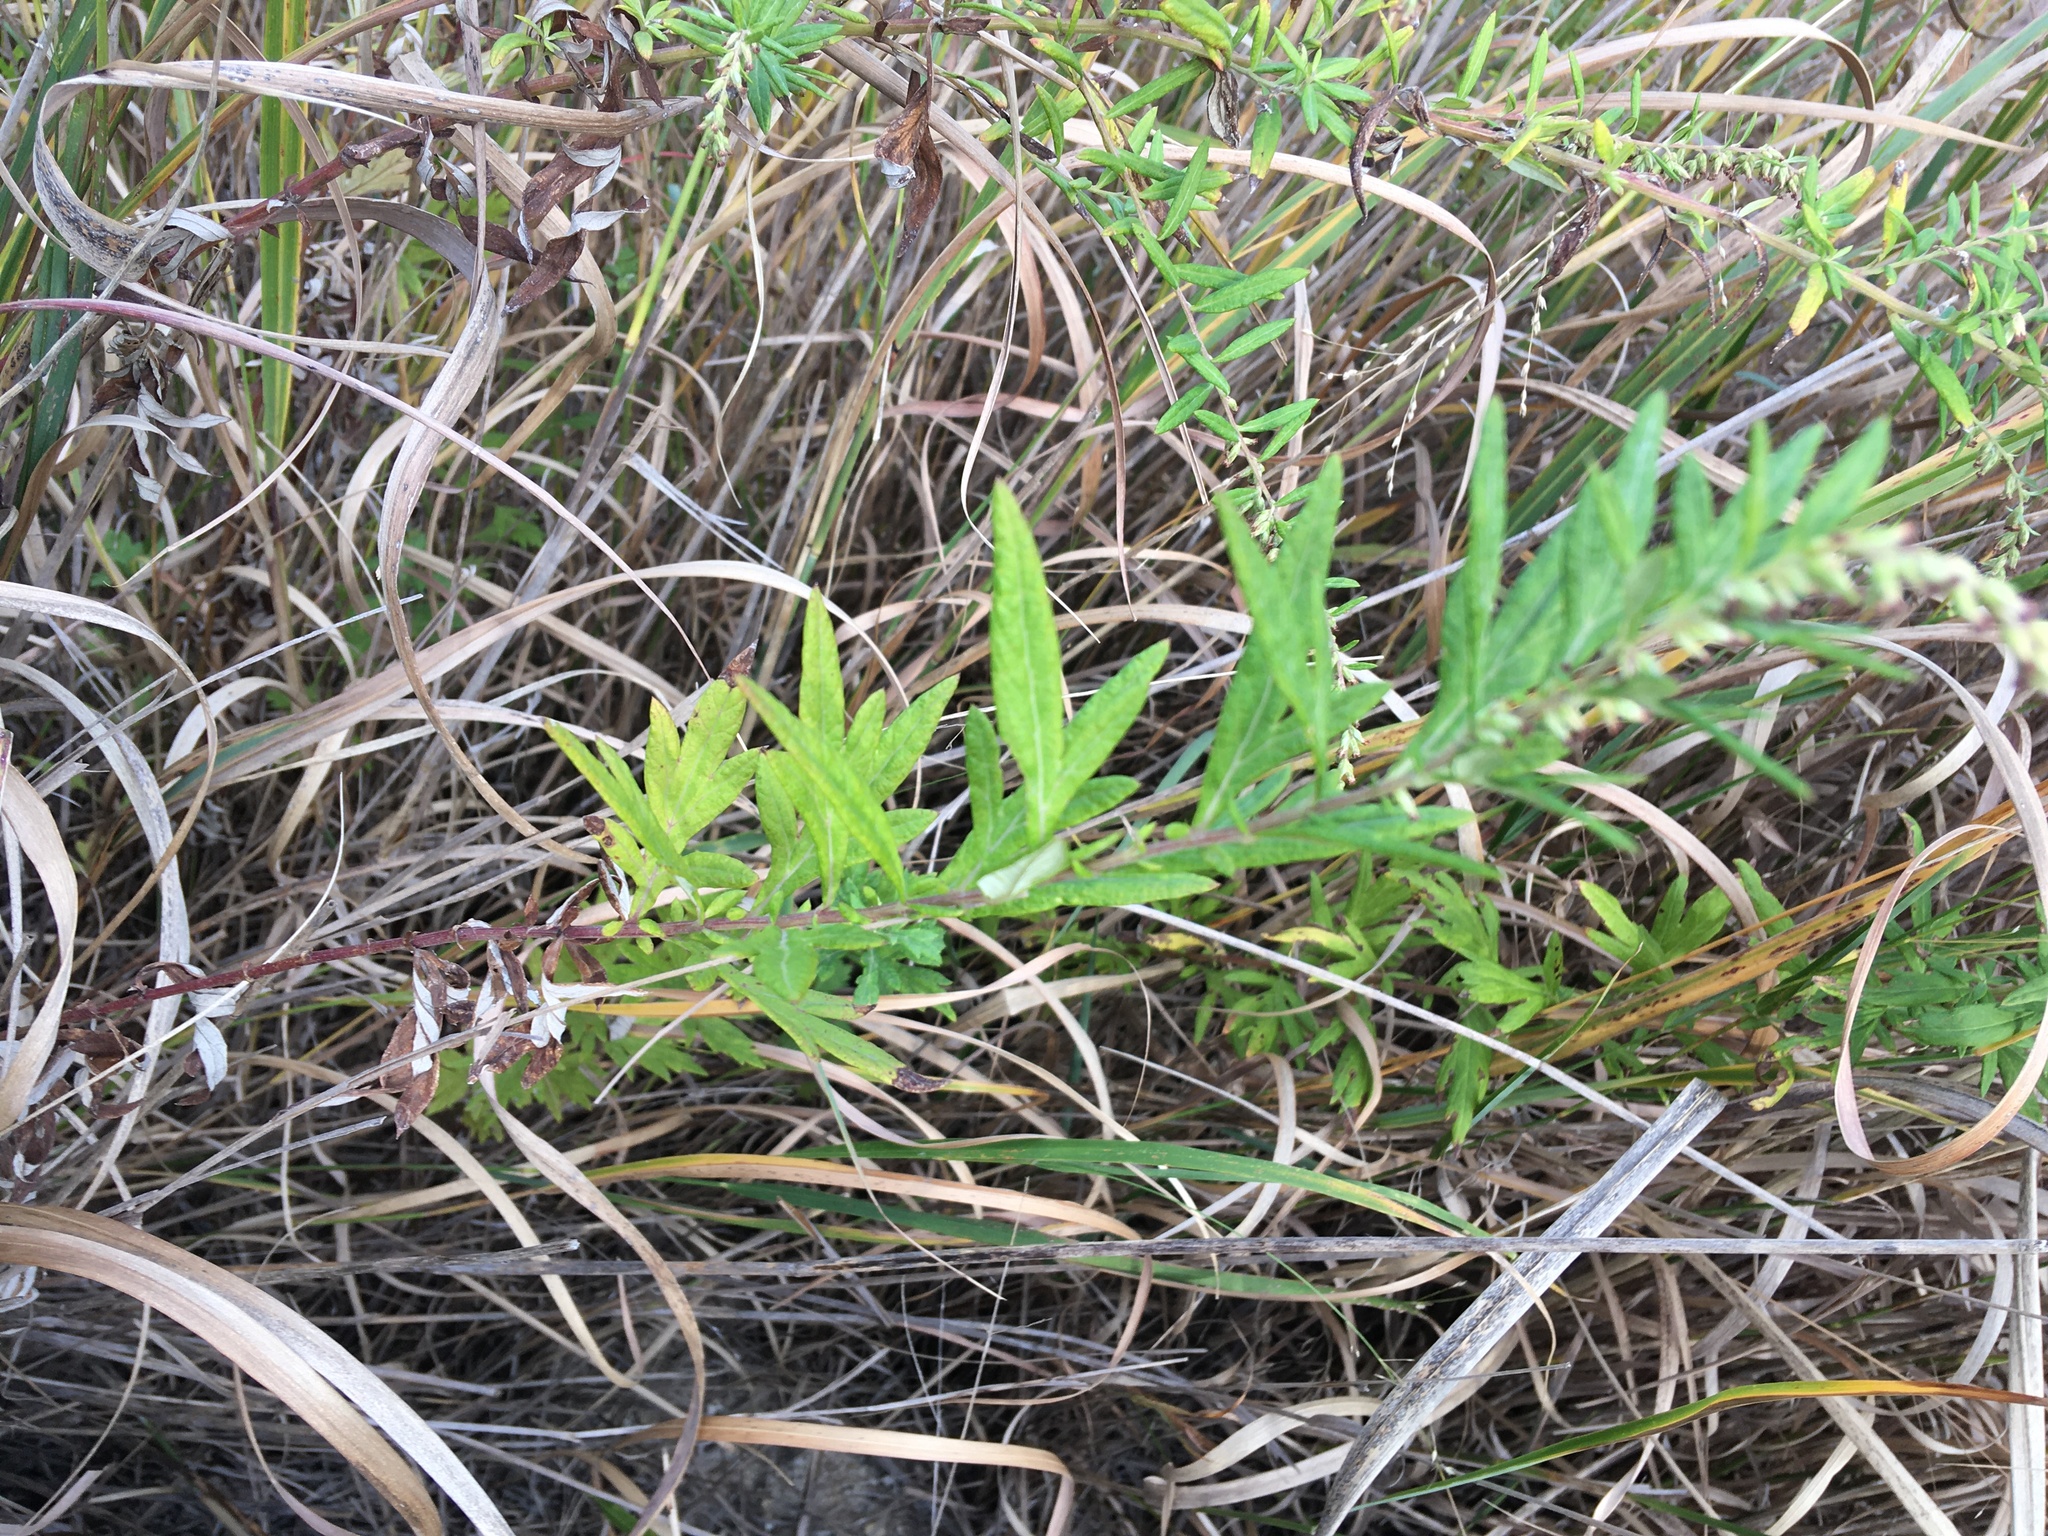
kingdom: Plantae
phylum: Tracheophyta
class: Magnoliopsida
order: Asterales
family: Asteraceae
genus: Artemisia
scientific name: Artemisia vulgaris
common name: Mugwort
